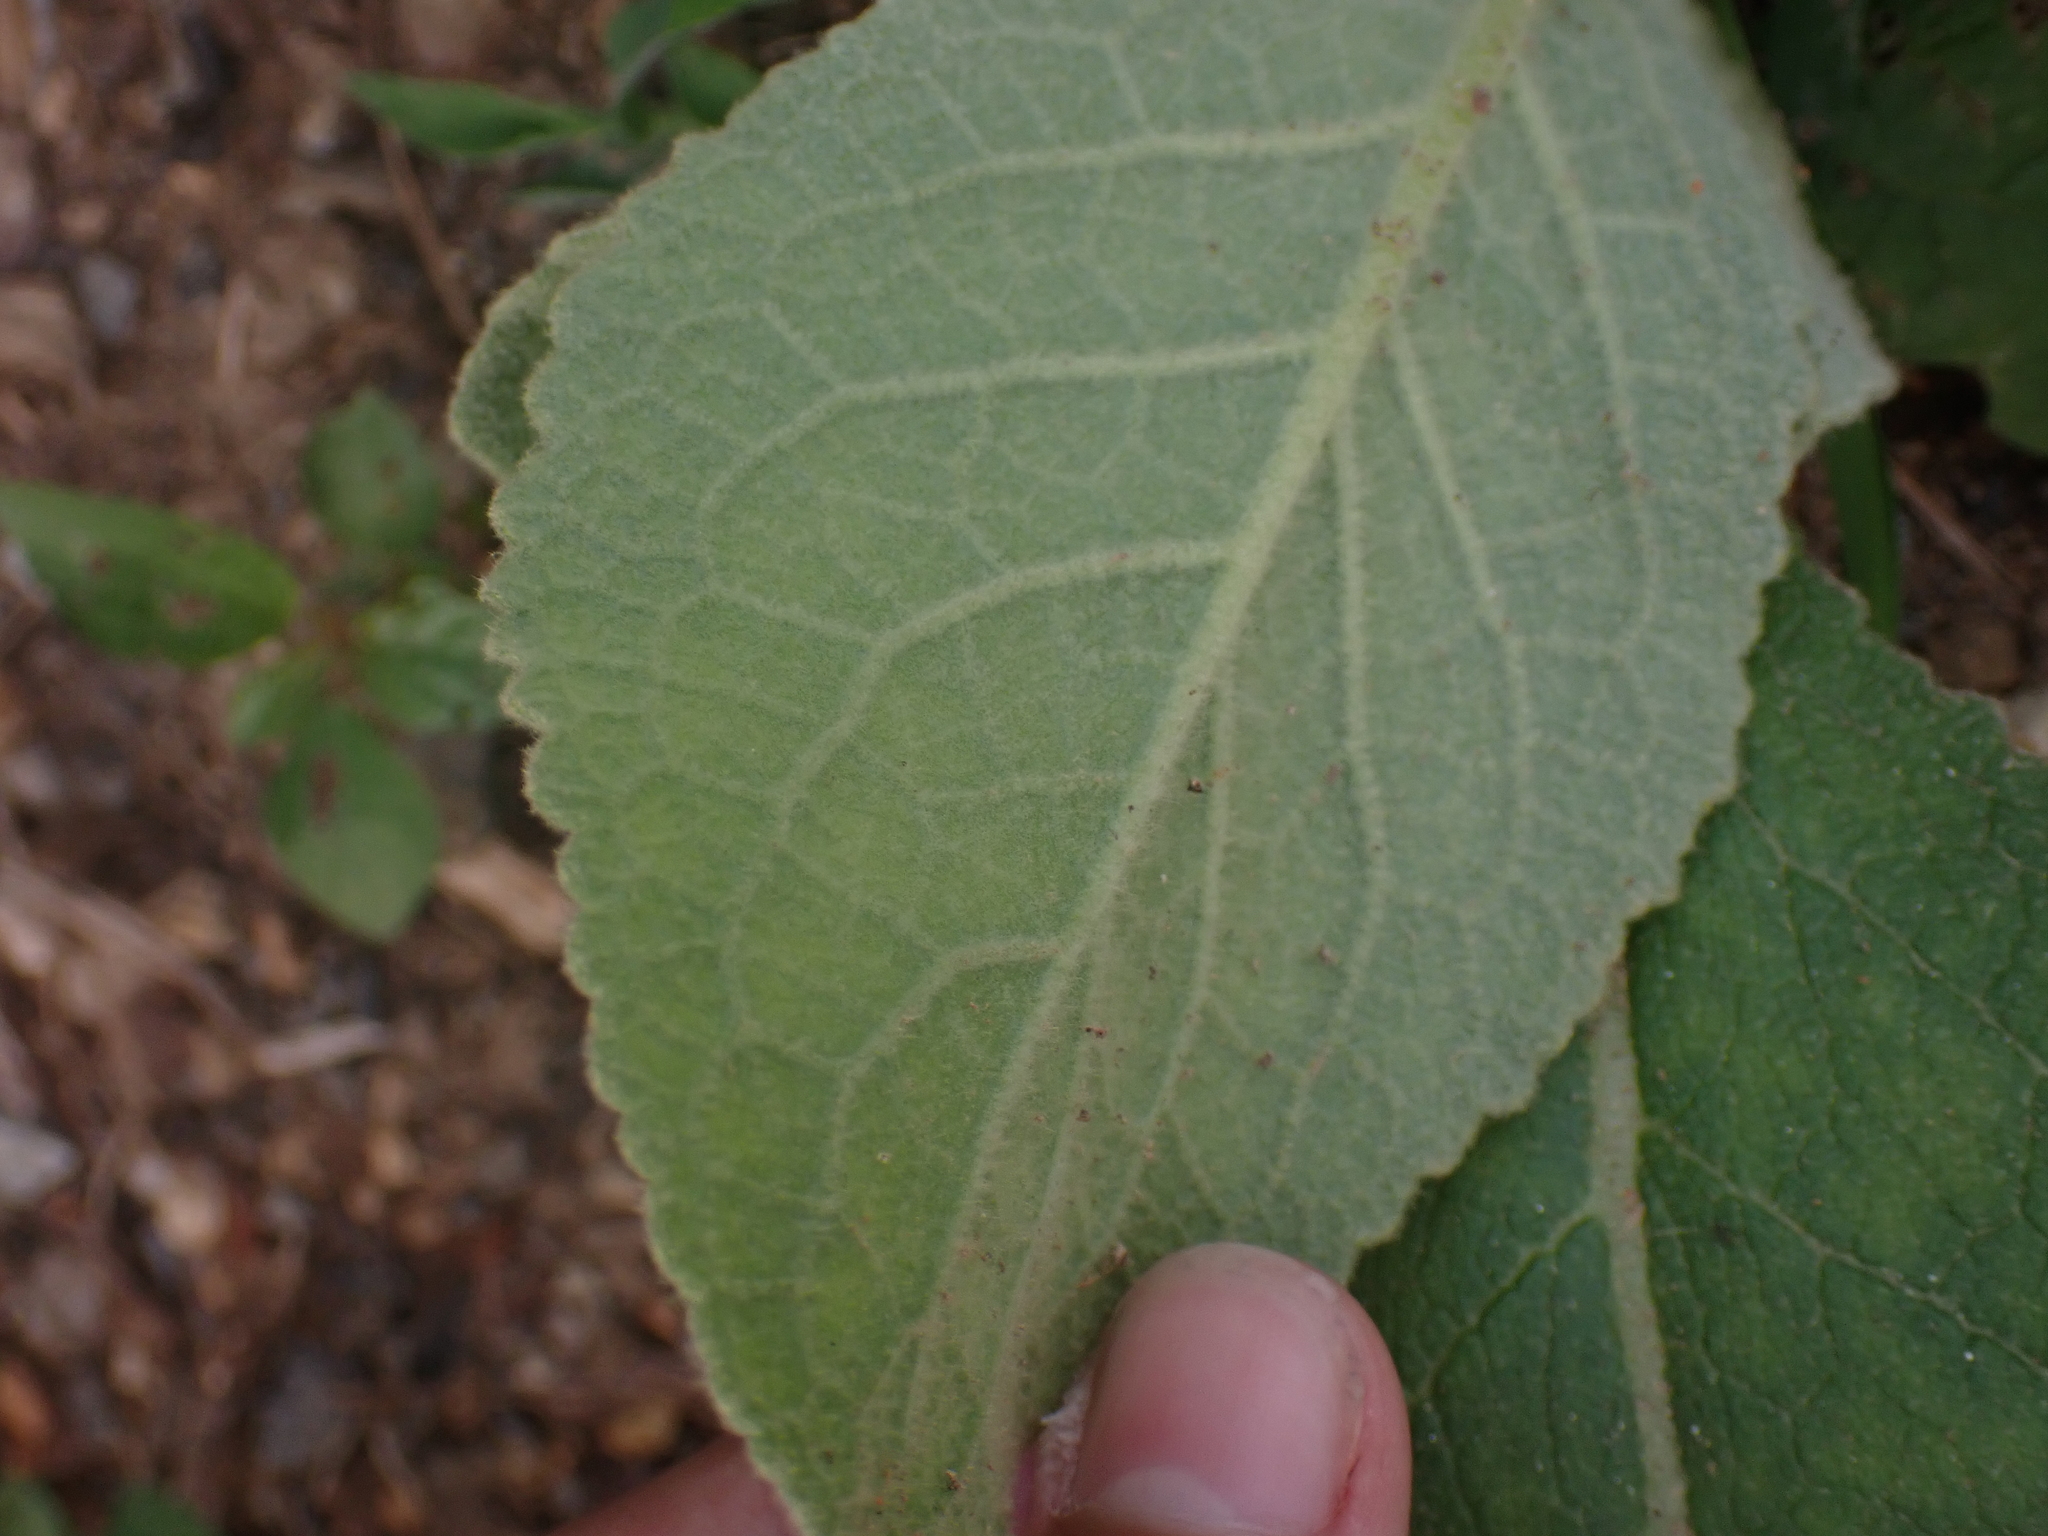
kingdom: Plantae
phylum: Tracheophyta
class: Magnoliopsida
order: Lamiales
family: Scrophulariaceae
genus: Verbascum
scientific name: Verbascum thapsus
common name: Common mullein
